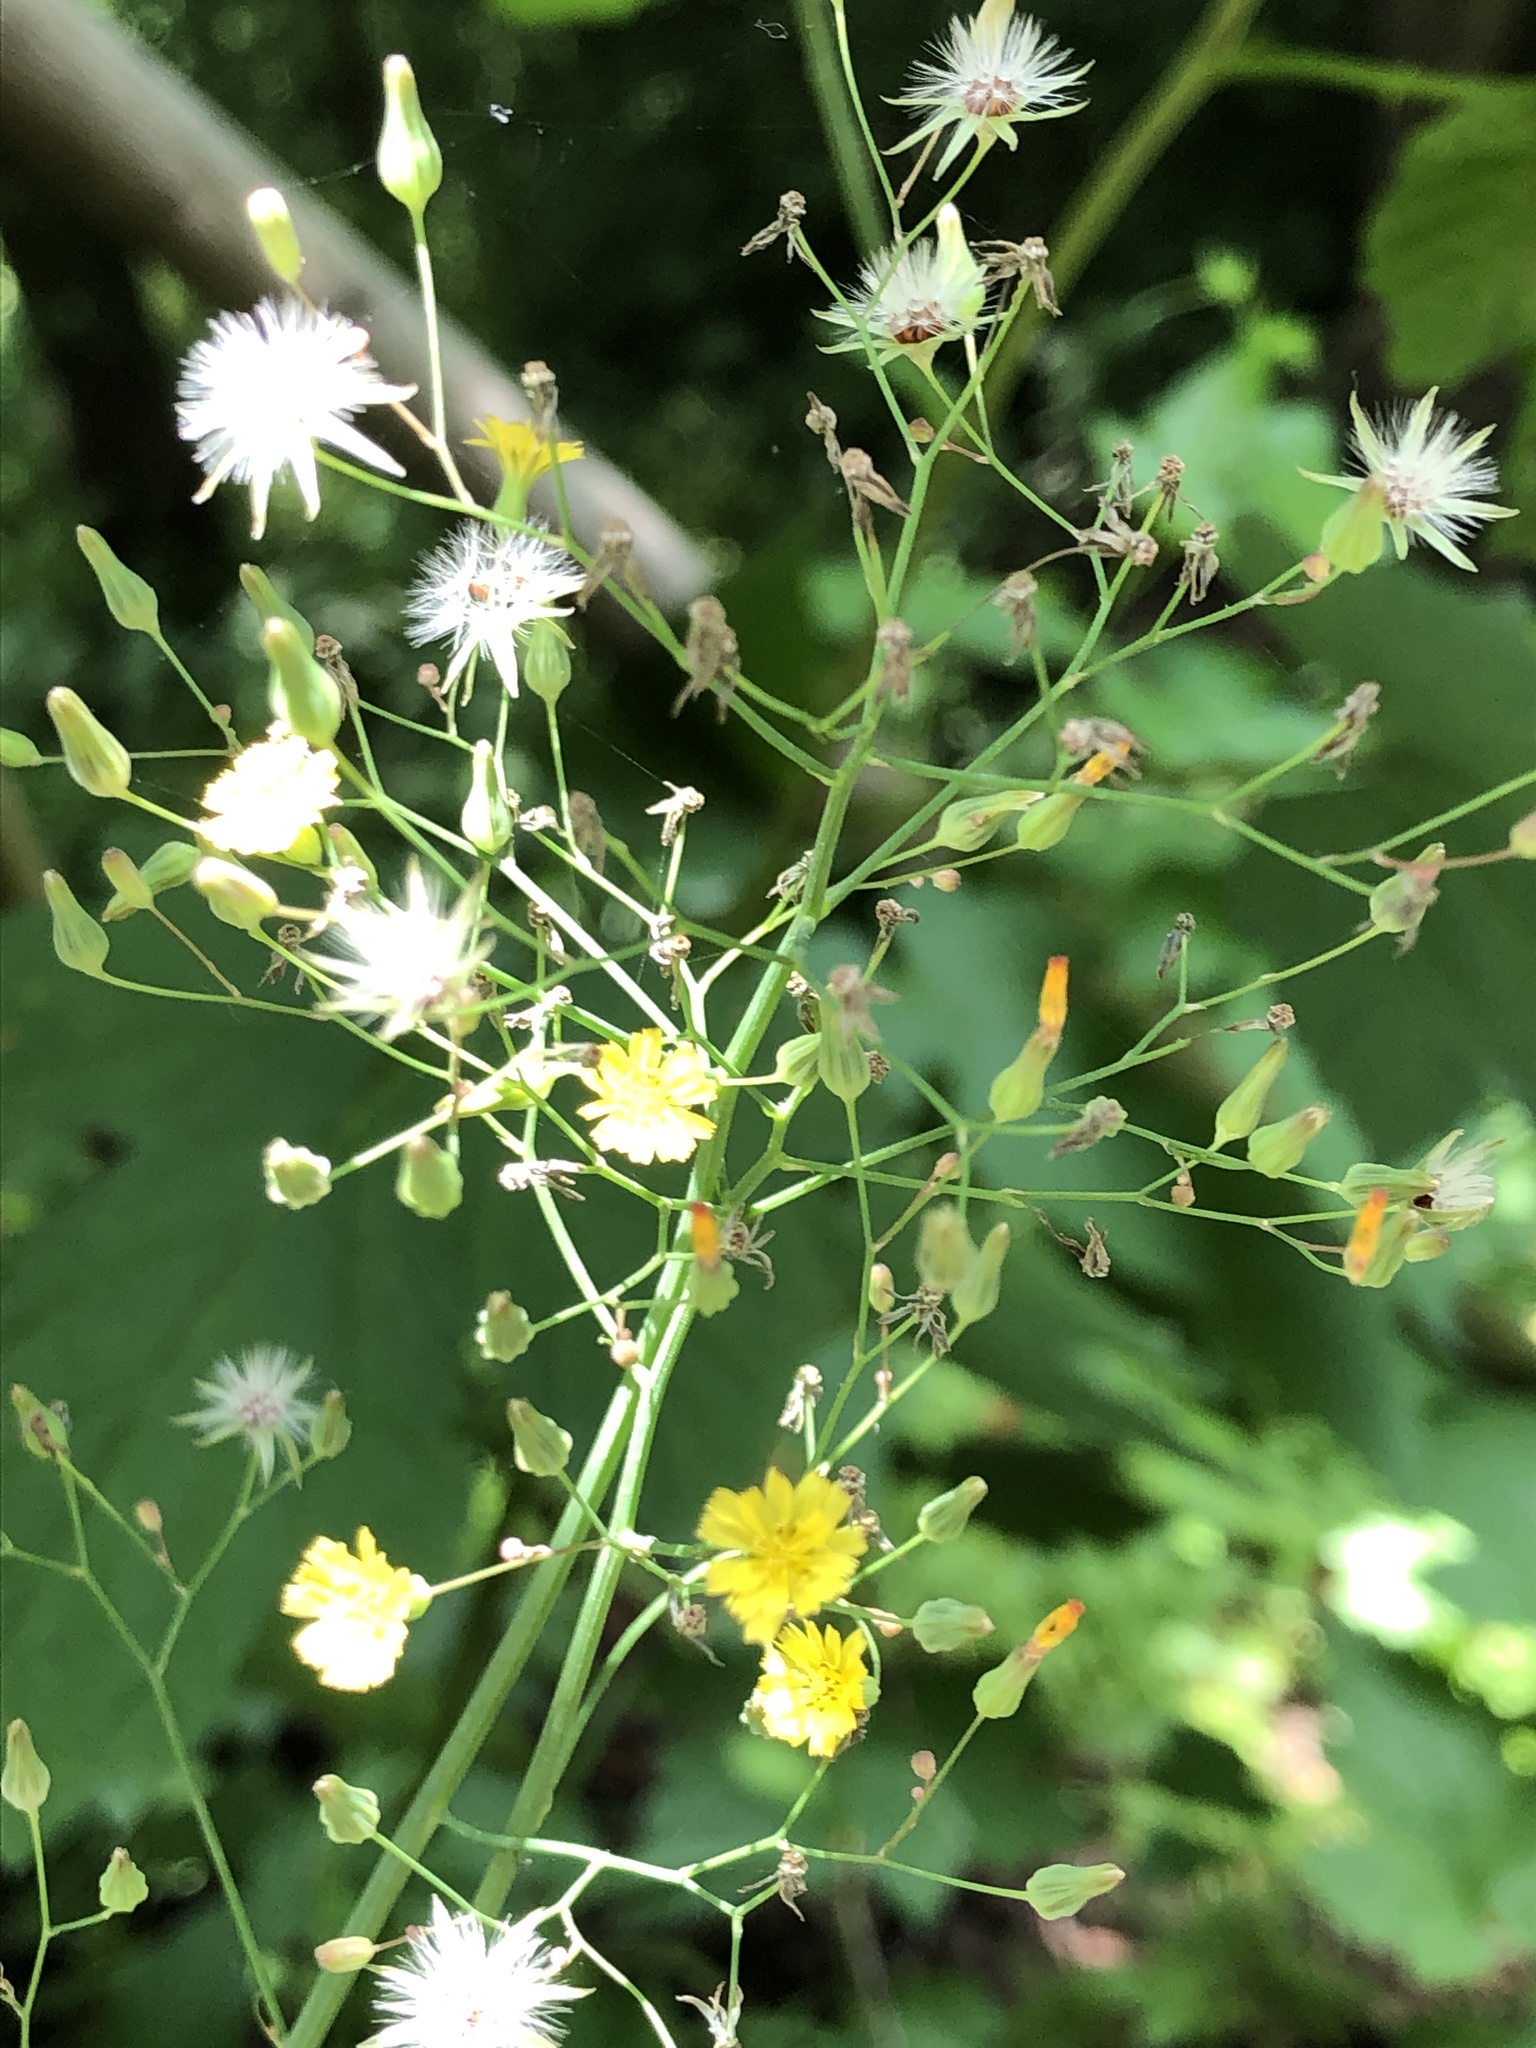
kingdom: Plantae
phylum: Tracheophyta
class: Magnoliopsida
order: Asterales
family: Asteraceae
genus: Youngia
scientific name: Youngia japonica
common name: Oriental false hawksbeard
